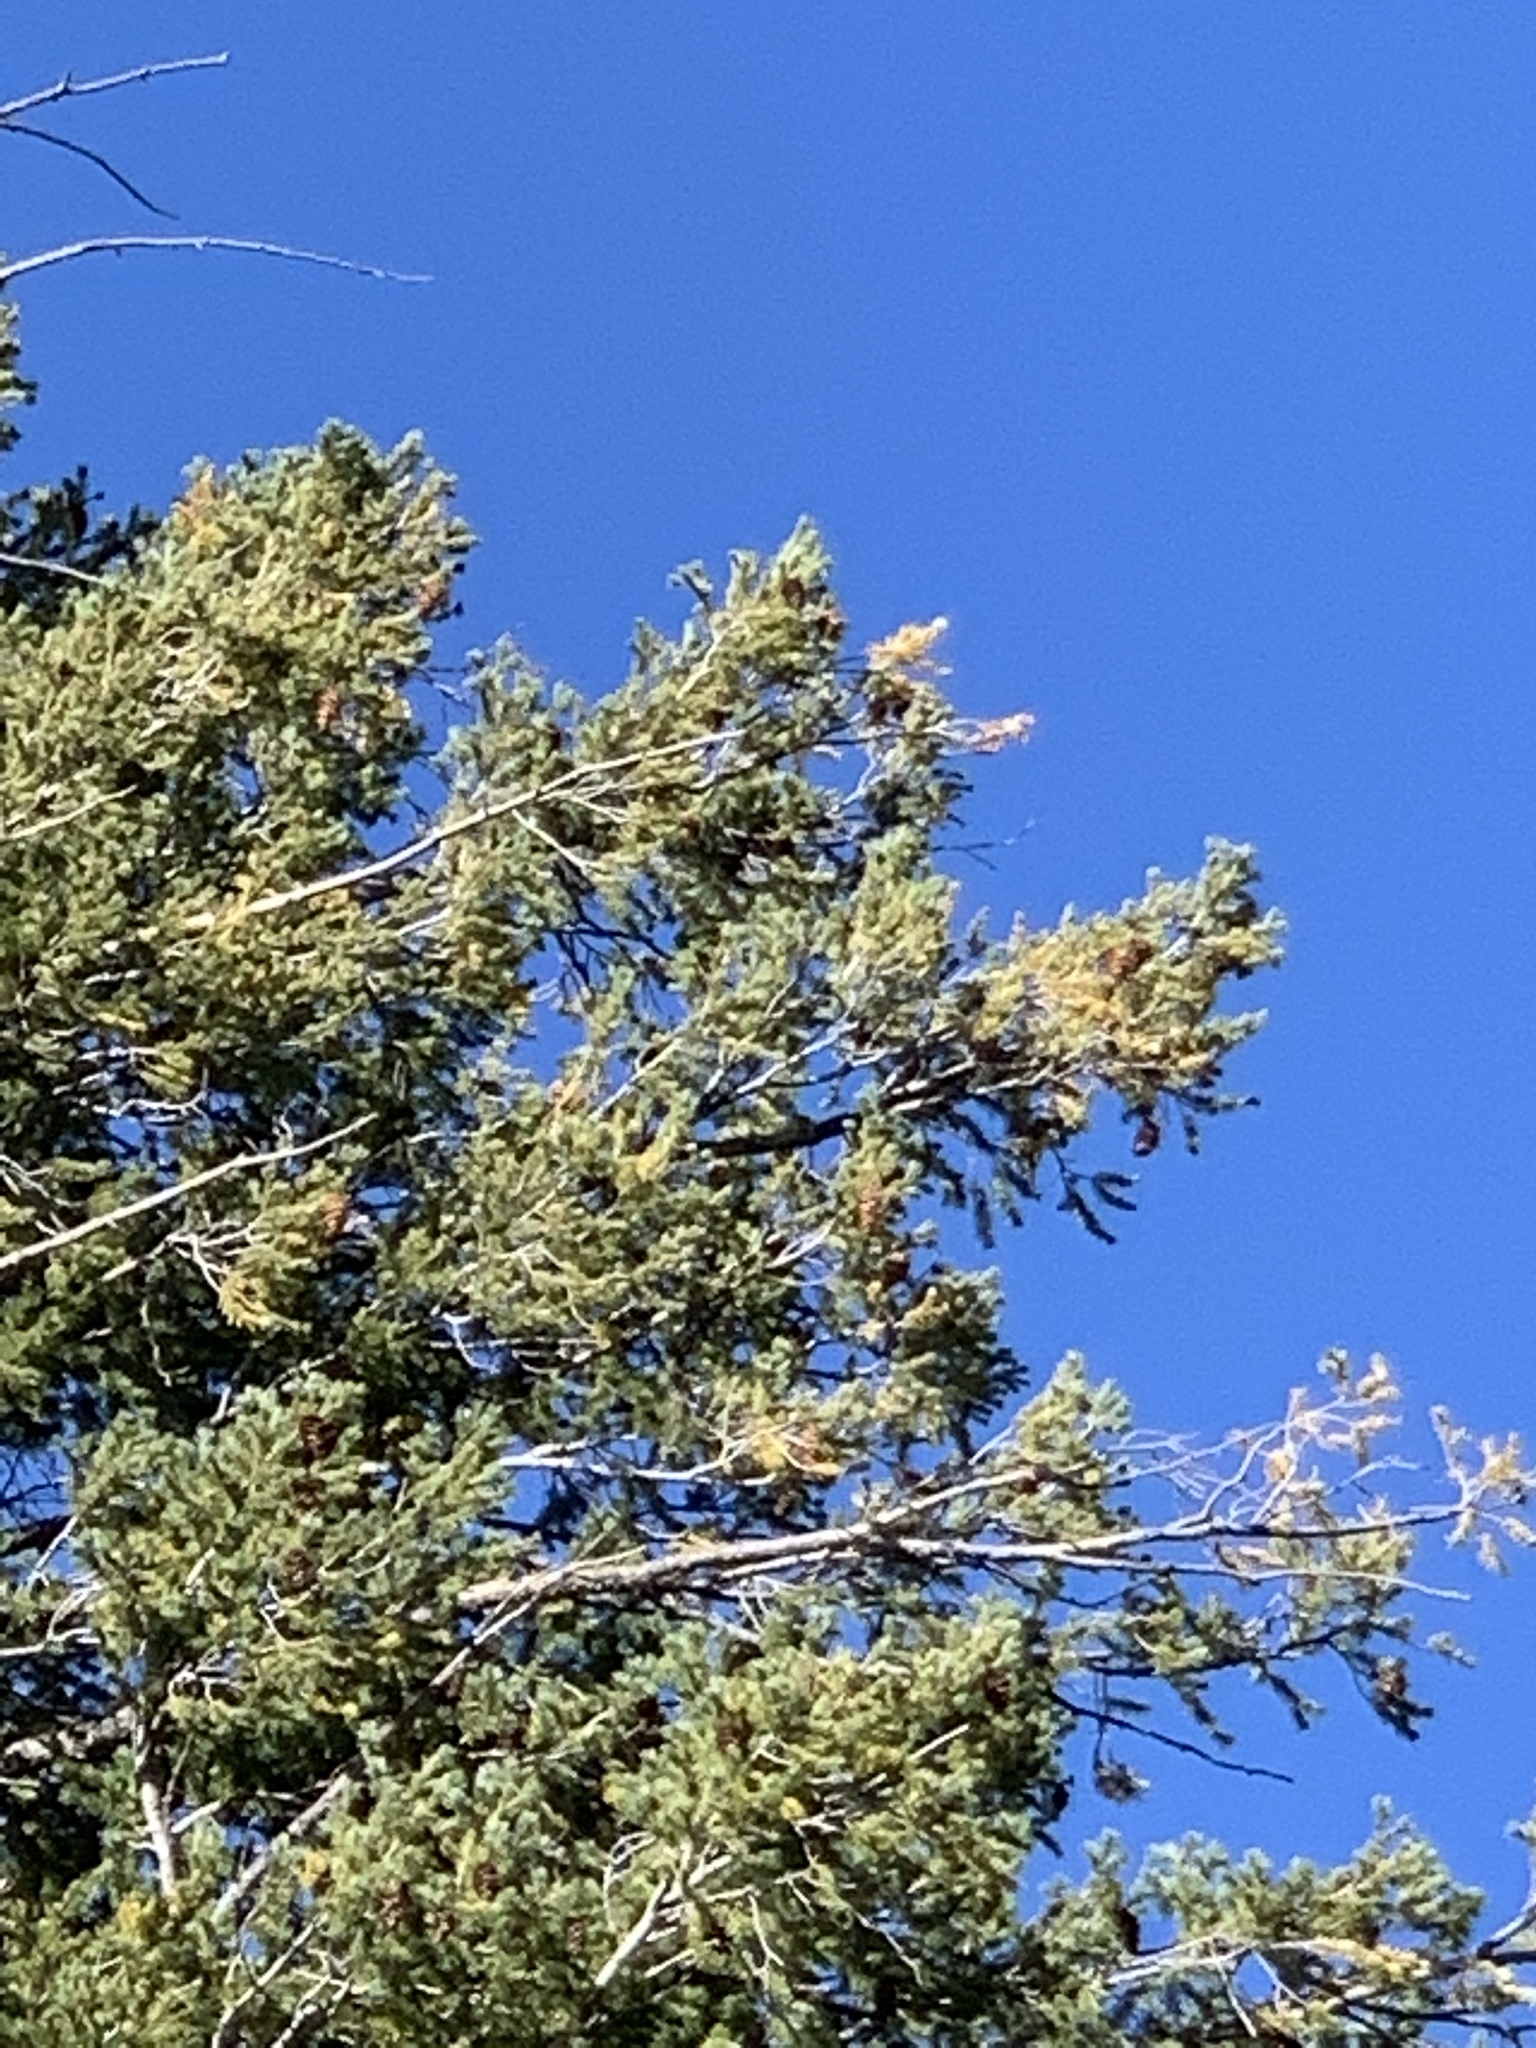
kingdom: Plantae
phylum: Tracheophyta
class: Pinopsida
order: Pinales
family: Pinaceae
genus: Pseudotsuga
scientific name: Pseudotsuga menziesii
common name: Douglas fir
